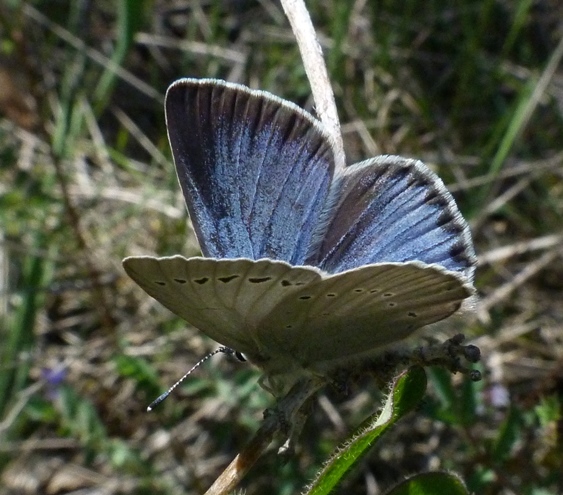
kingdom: Animalia
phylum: Arthropoda
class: Insecta
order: Lepidoptera
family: Lycaenidae
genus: Iolana
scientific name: Iolana debilitata
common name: Iolas blue
